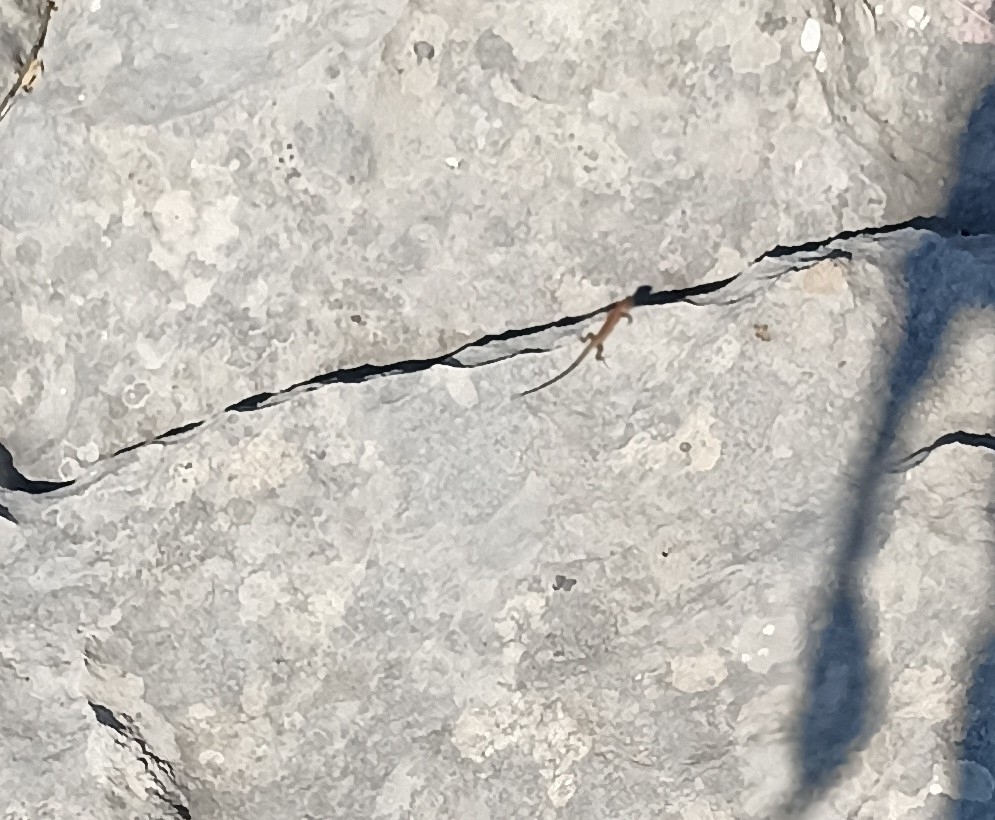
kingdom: Animalia
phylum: Chordata
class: Squamata
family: Lacertidae
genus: Podarcis
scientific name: Podarcis muralis
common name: Common wall lizard
